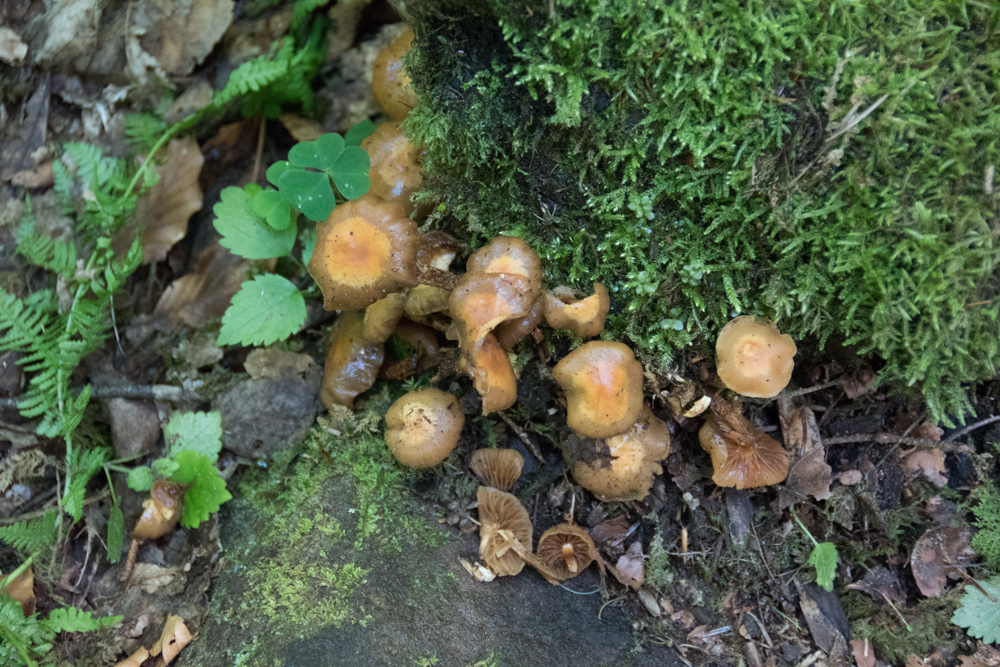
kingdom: Fungi
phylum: Basidiomycota
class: Agaricomycetes
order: Agaricales
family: Strophariaceae
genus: Kuehneromyces
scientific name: Kuehneromyces mutabilis
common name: Sheathed woodtuft
